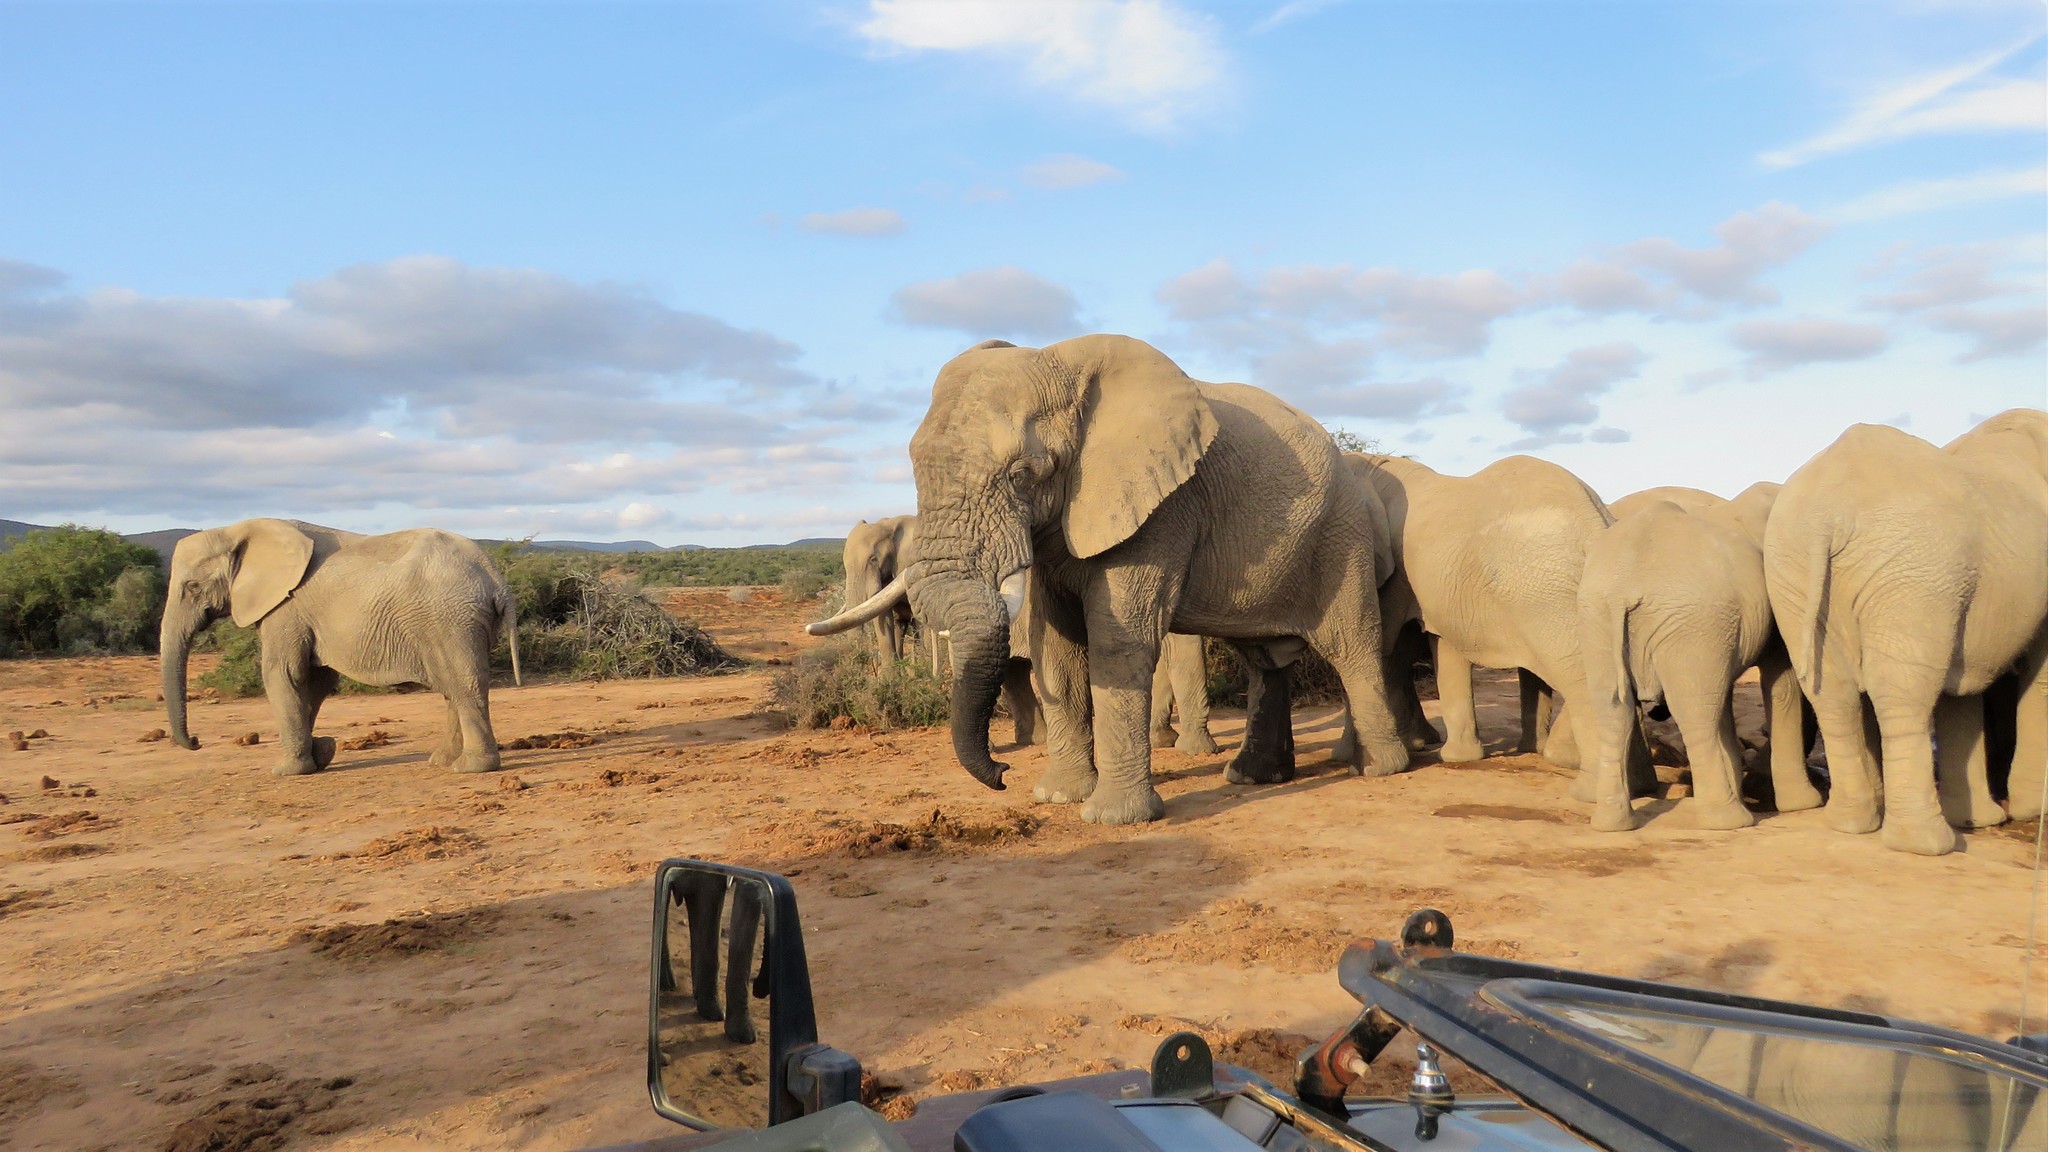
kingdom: Animalia
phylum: Chordata
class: Mammalia
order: Proboscidea
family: Elephantidae
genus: Loxodonta
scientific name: Loxodonta africana
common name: African elephant
